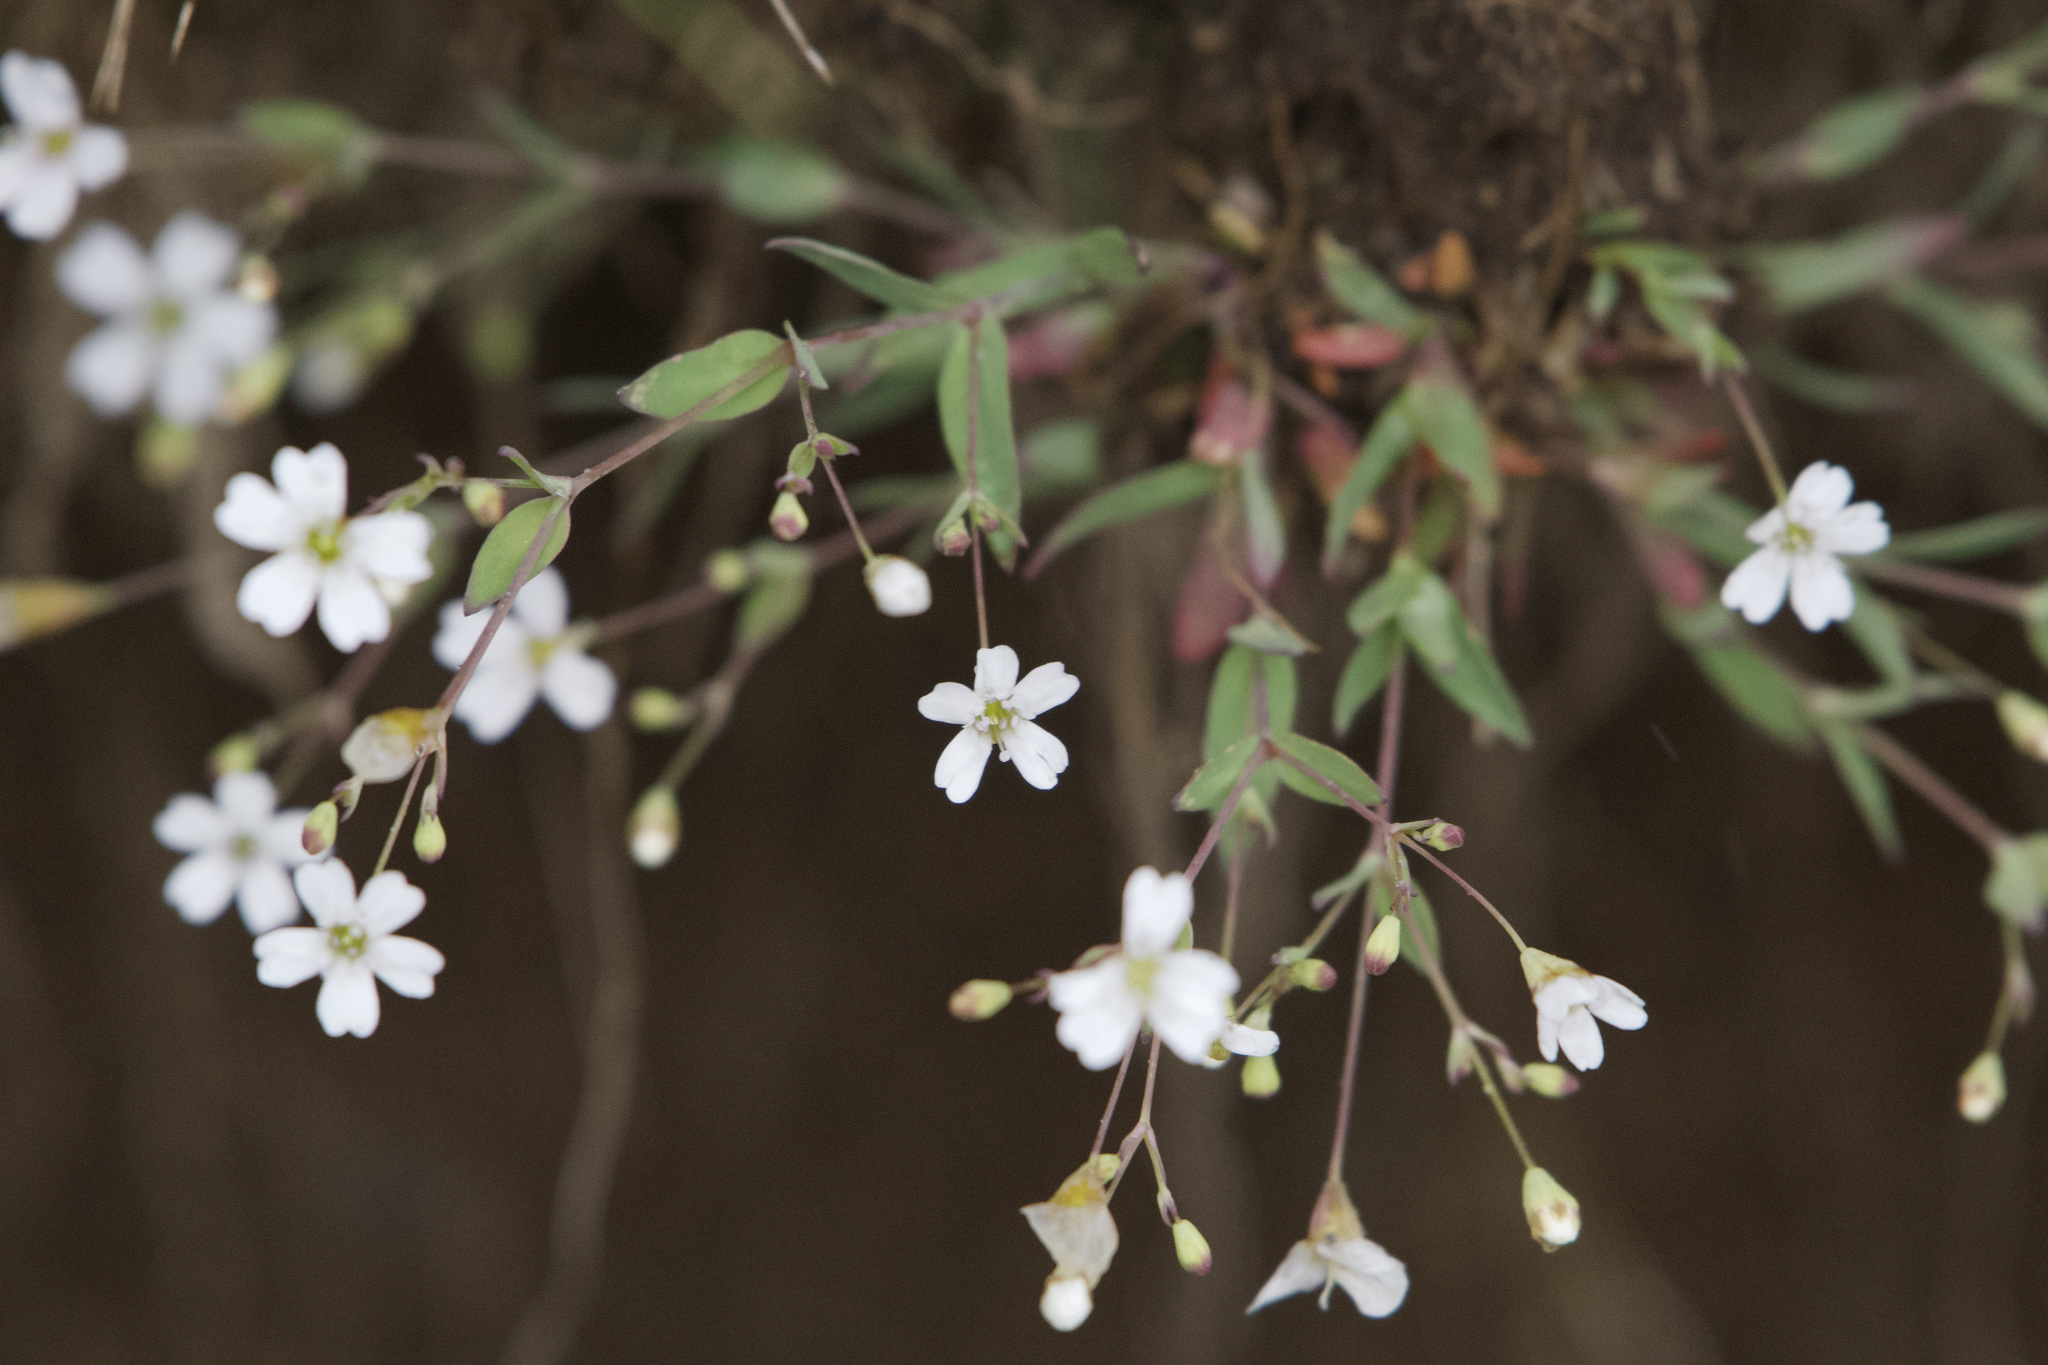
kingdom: Plantae
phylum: Tracheophyta
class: Magnoliopsida
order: Caryophyllales
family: Caryophyllaceae
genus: Atocion
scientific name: Atocion rupestre
